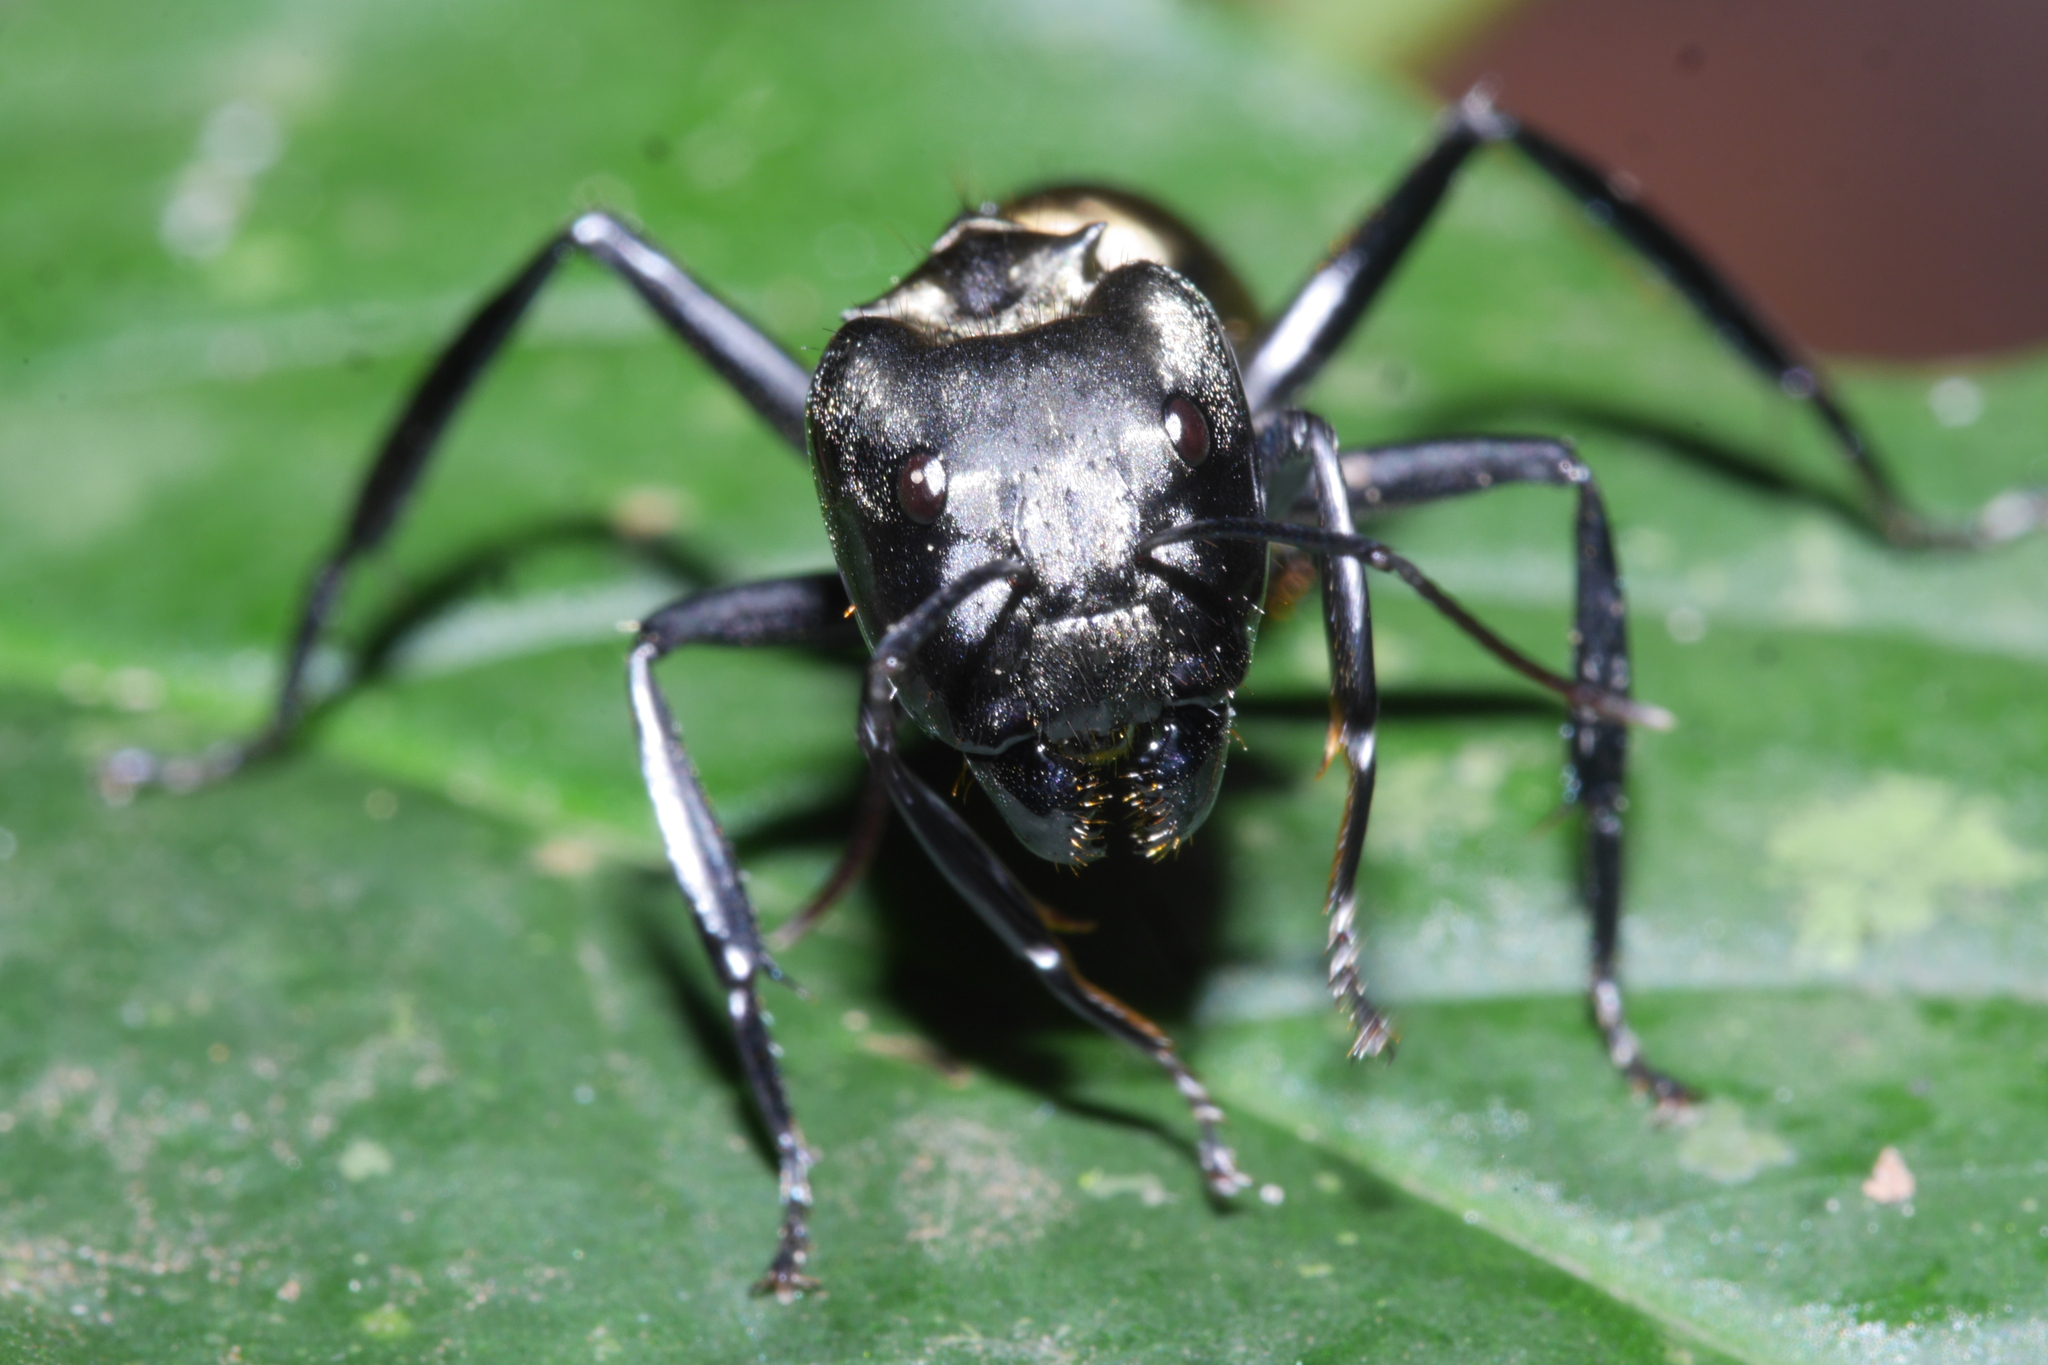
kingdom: Animalia
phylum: Arthropoda
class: Insecta
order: Hymenoptera
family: Formicidae
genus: Camponotus
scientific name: Camponotus sericeiventris
